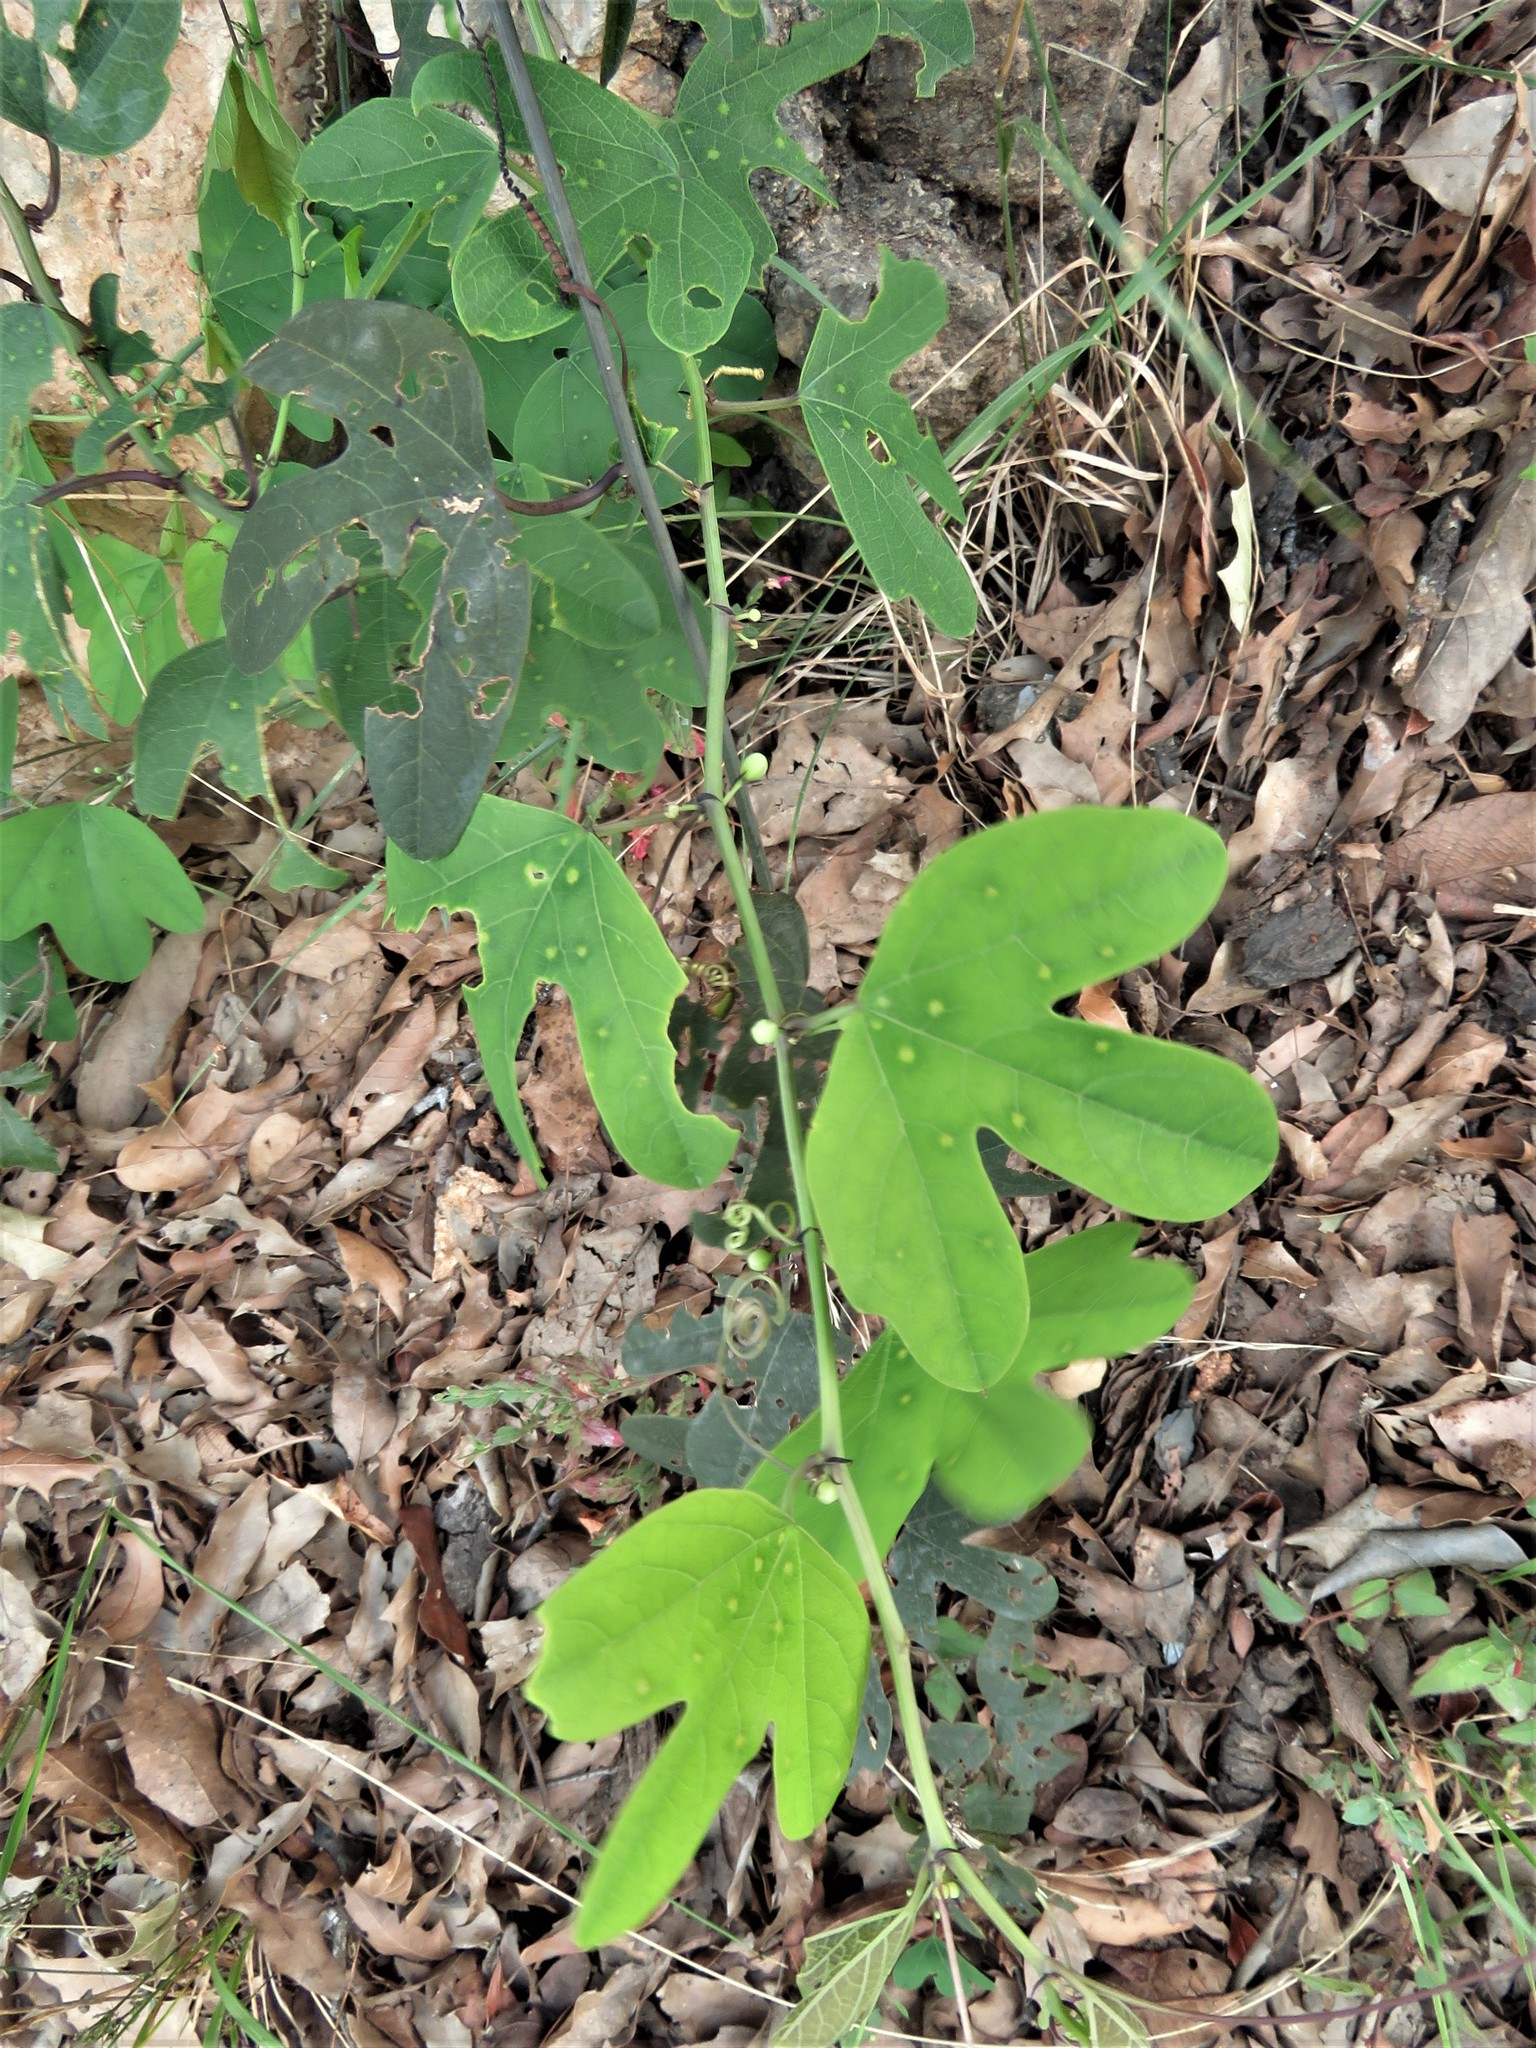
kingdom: Plantae
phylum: Tracheophyta
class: Magnoliopsida
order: Malpighiales
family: Passifloraceae
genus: Passiflora
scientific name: Passiflora affinis
